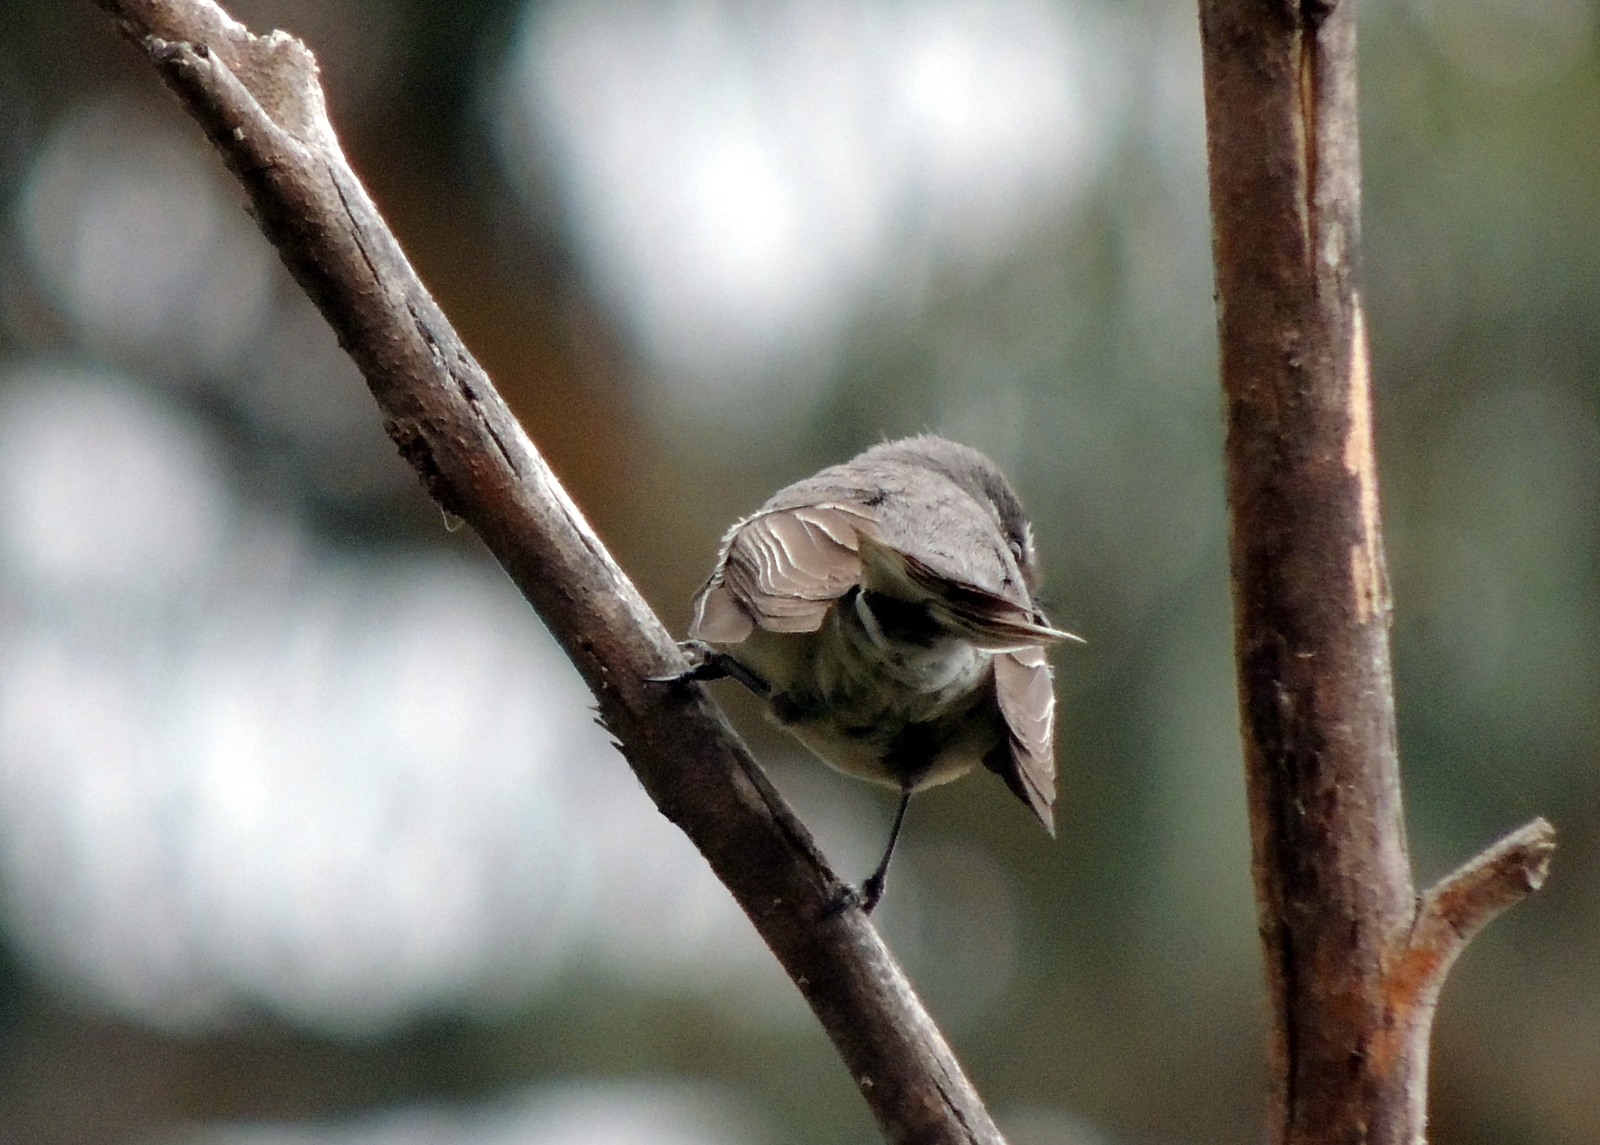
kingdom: Animalia
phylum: Chordata
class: Aves
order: Passeriformes
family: Rhipiduridae
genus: Rhipidura
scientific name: Rhipidura albiscapa
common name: Grey fantail
